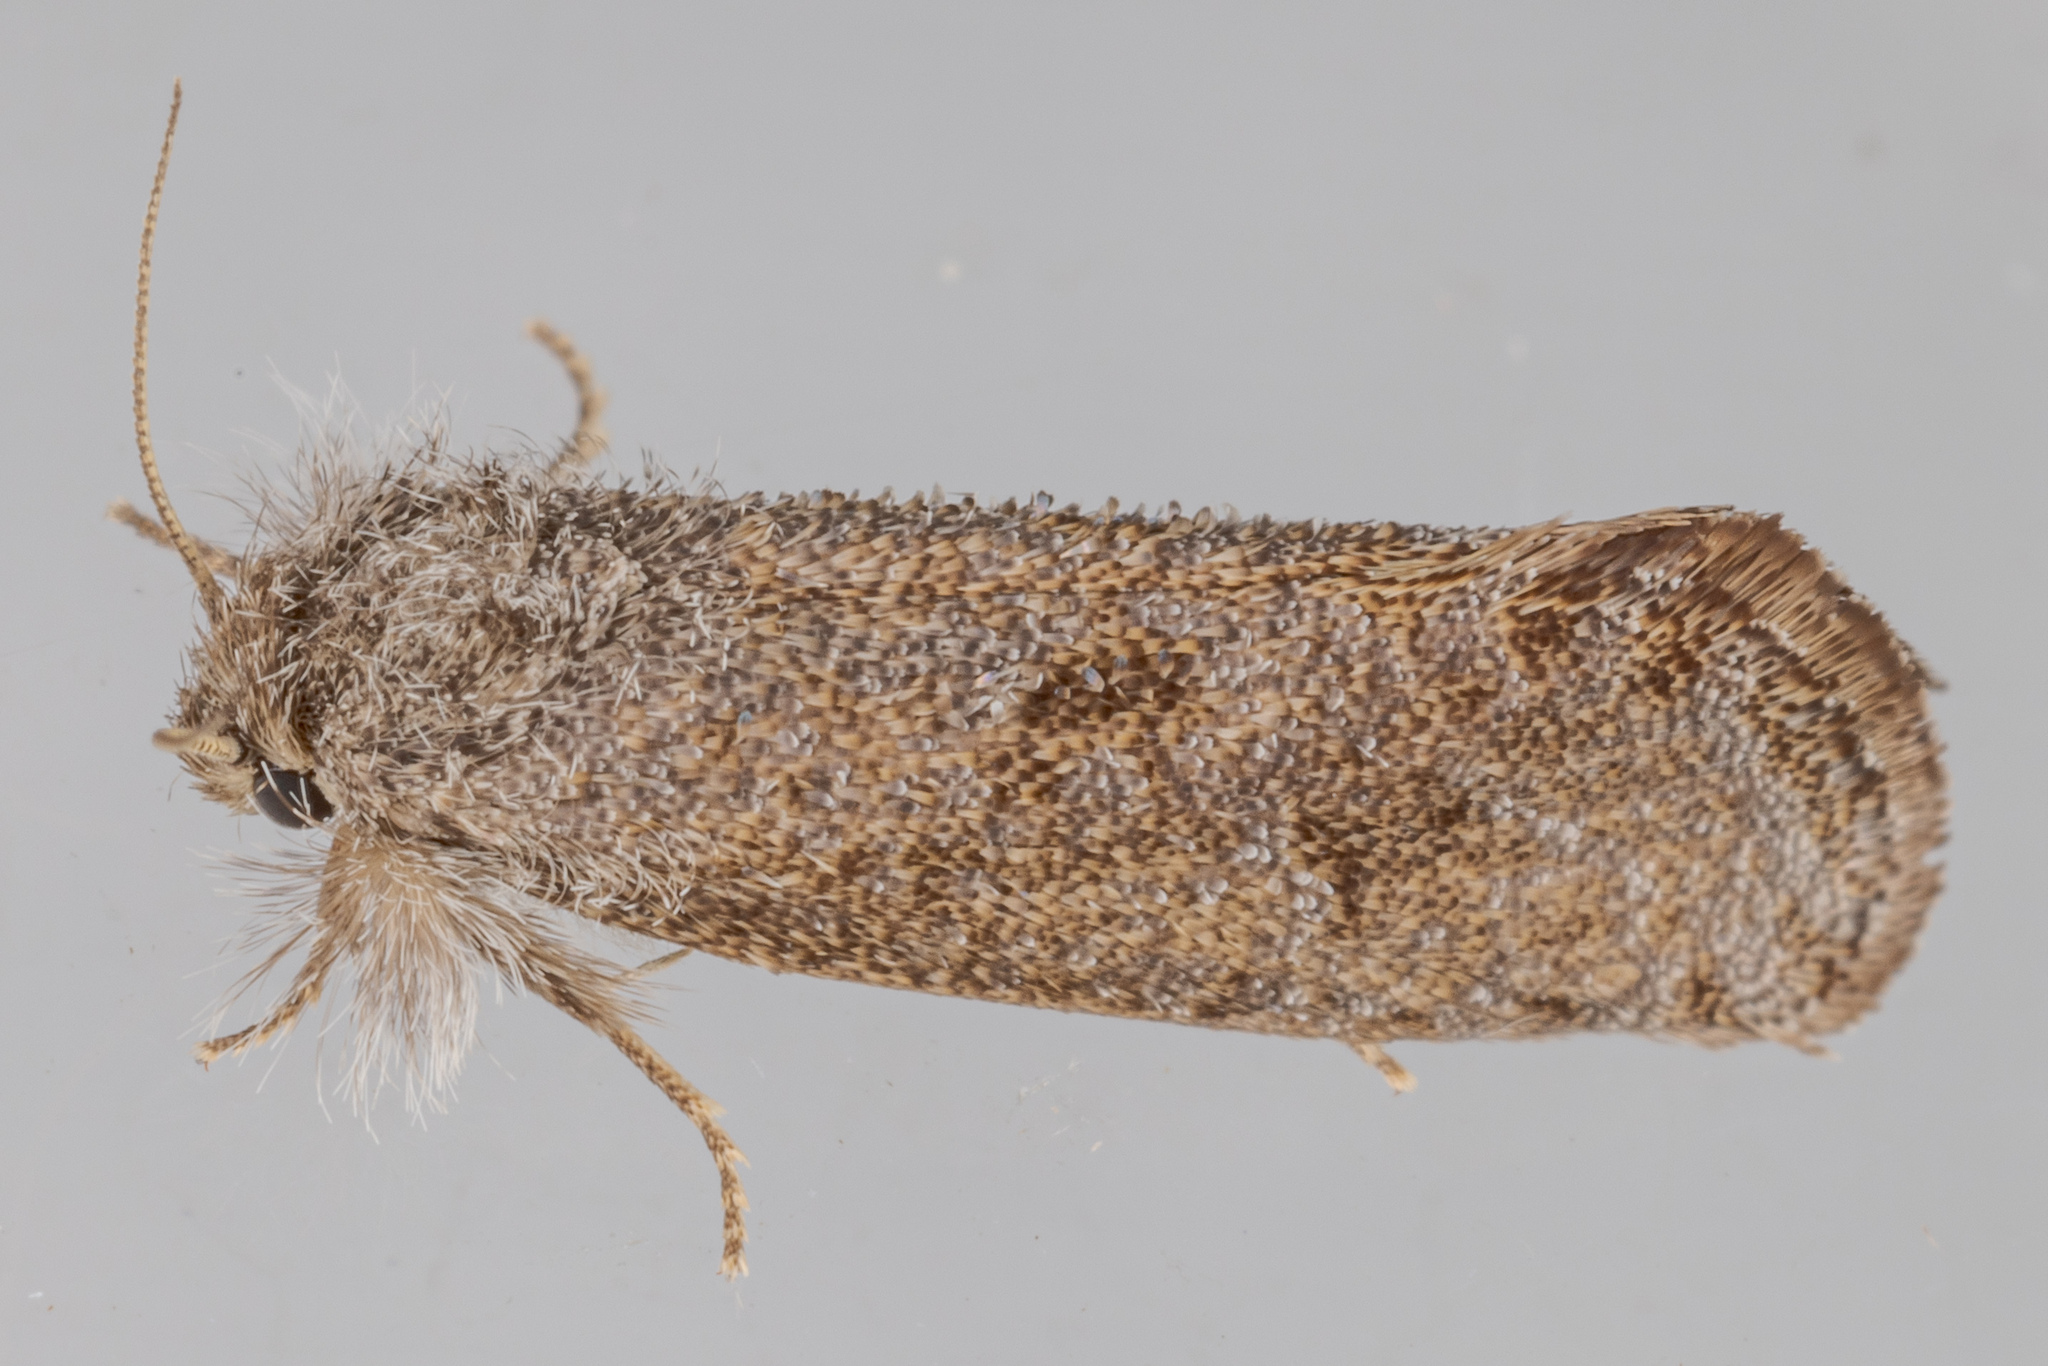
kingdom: Animalia
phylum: Arthropoda
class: Insecta
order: Lepidoptera
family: Tineidae
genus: Acrolophus
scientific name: Acrolophus heppneri
